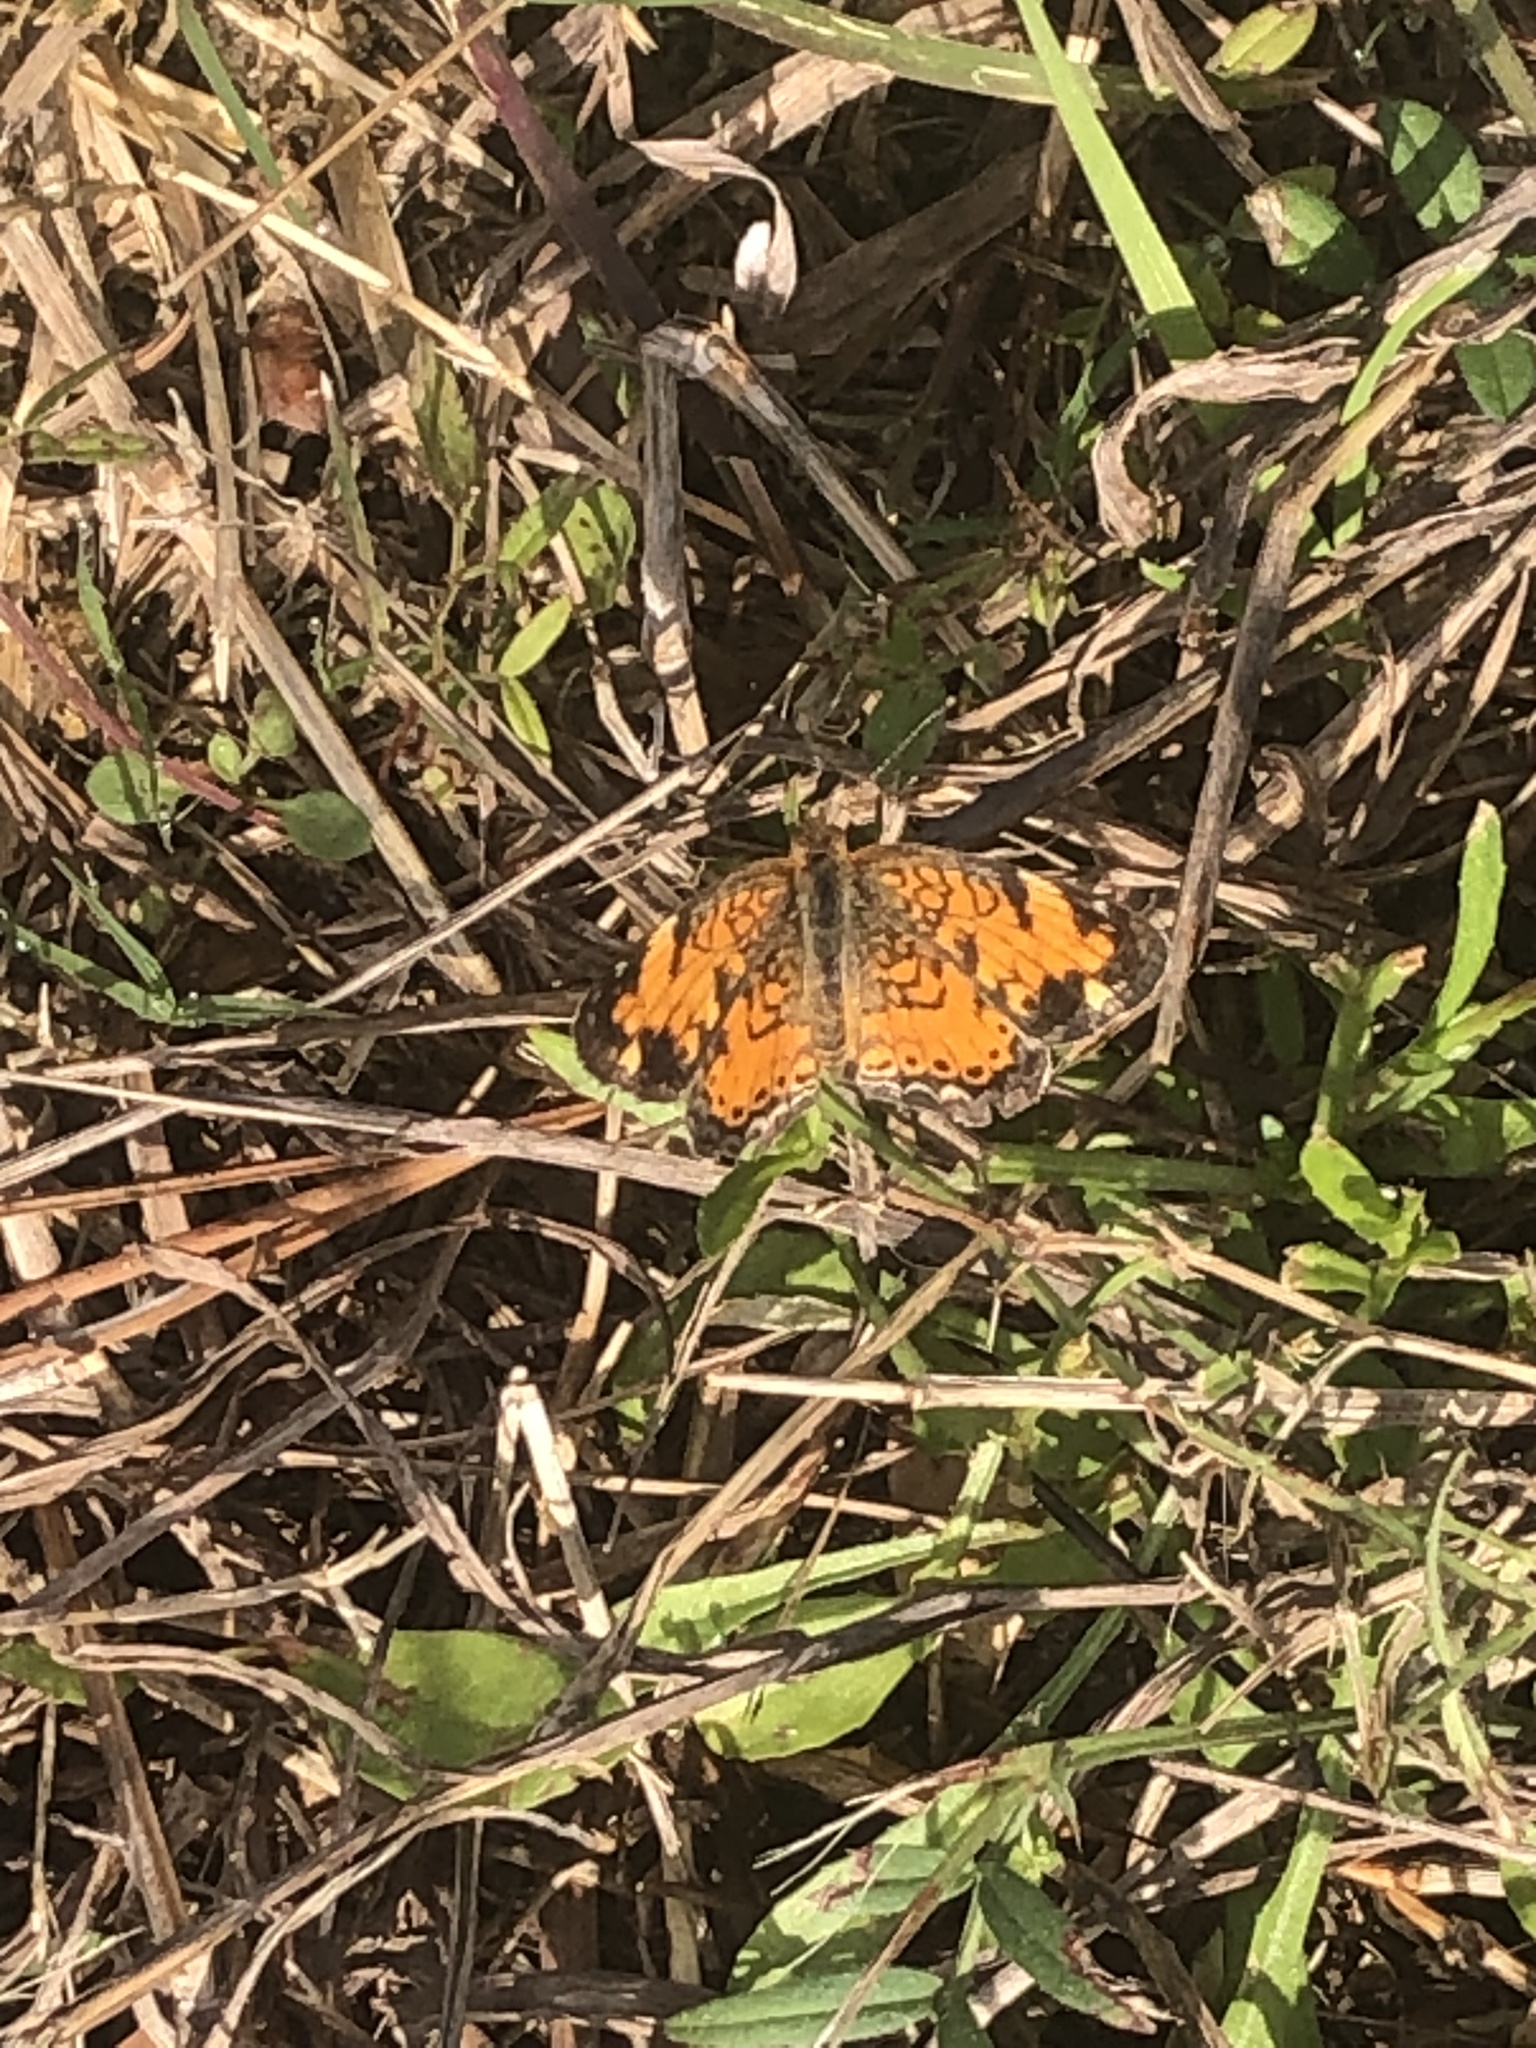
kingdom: Animalia
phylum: Arthropoda
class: Insecta
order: Lepidoptera
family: Nymphalidae
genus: Phyciodes
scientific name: Phyciodes tharos
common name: Pearl crescent
